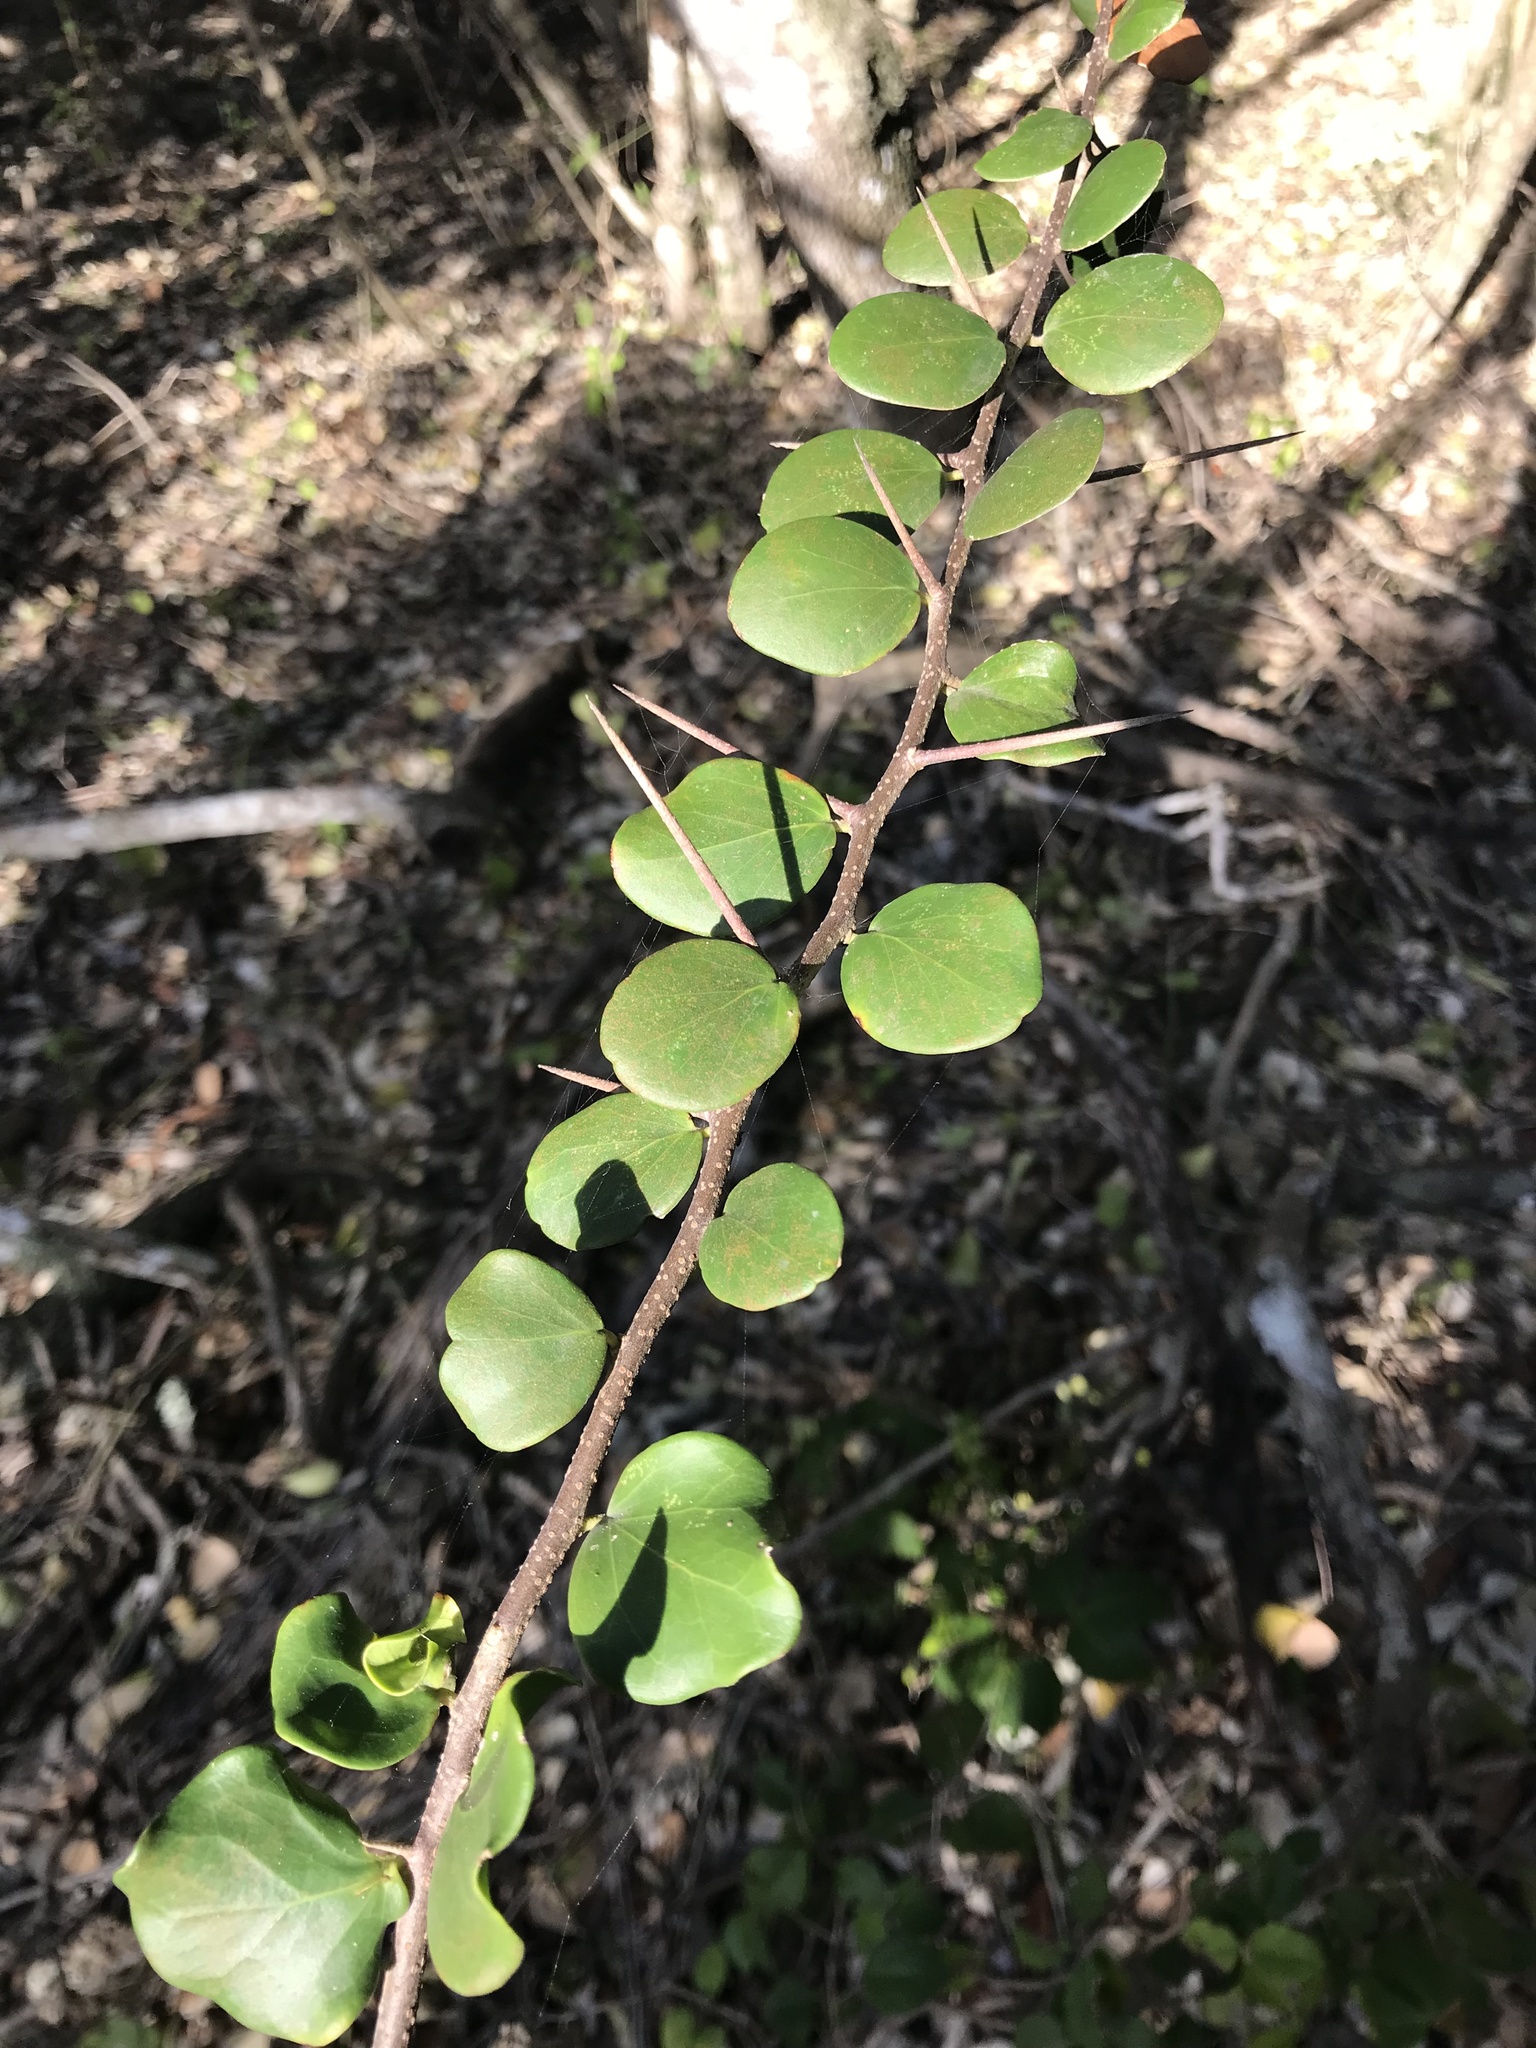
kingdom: Plantae
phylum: Tracheophyta
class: Magnoliopsida
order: Malpighiales
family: Salicaceae
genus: Dovyalis
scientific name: Dovyalis rotundifolia
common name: Dune sourberry
